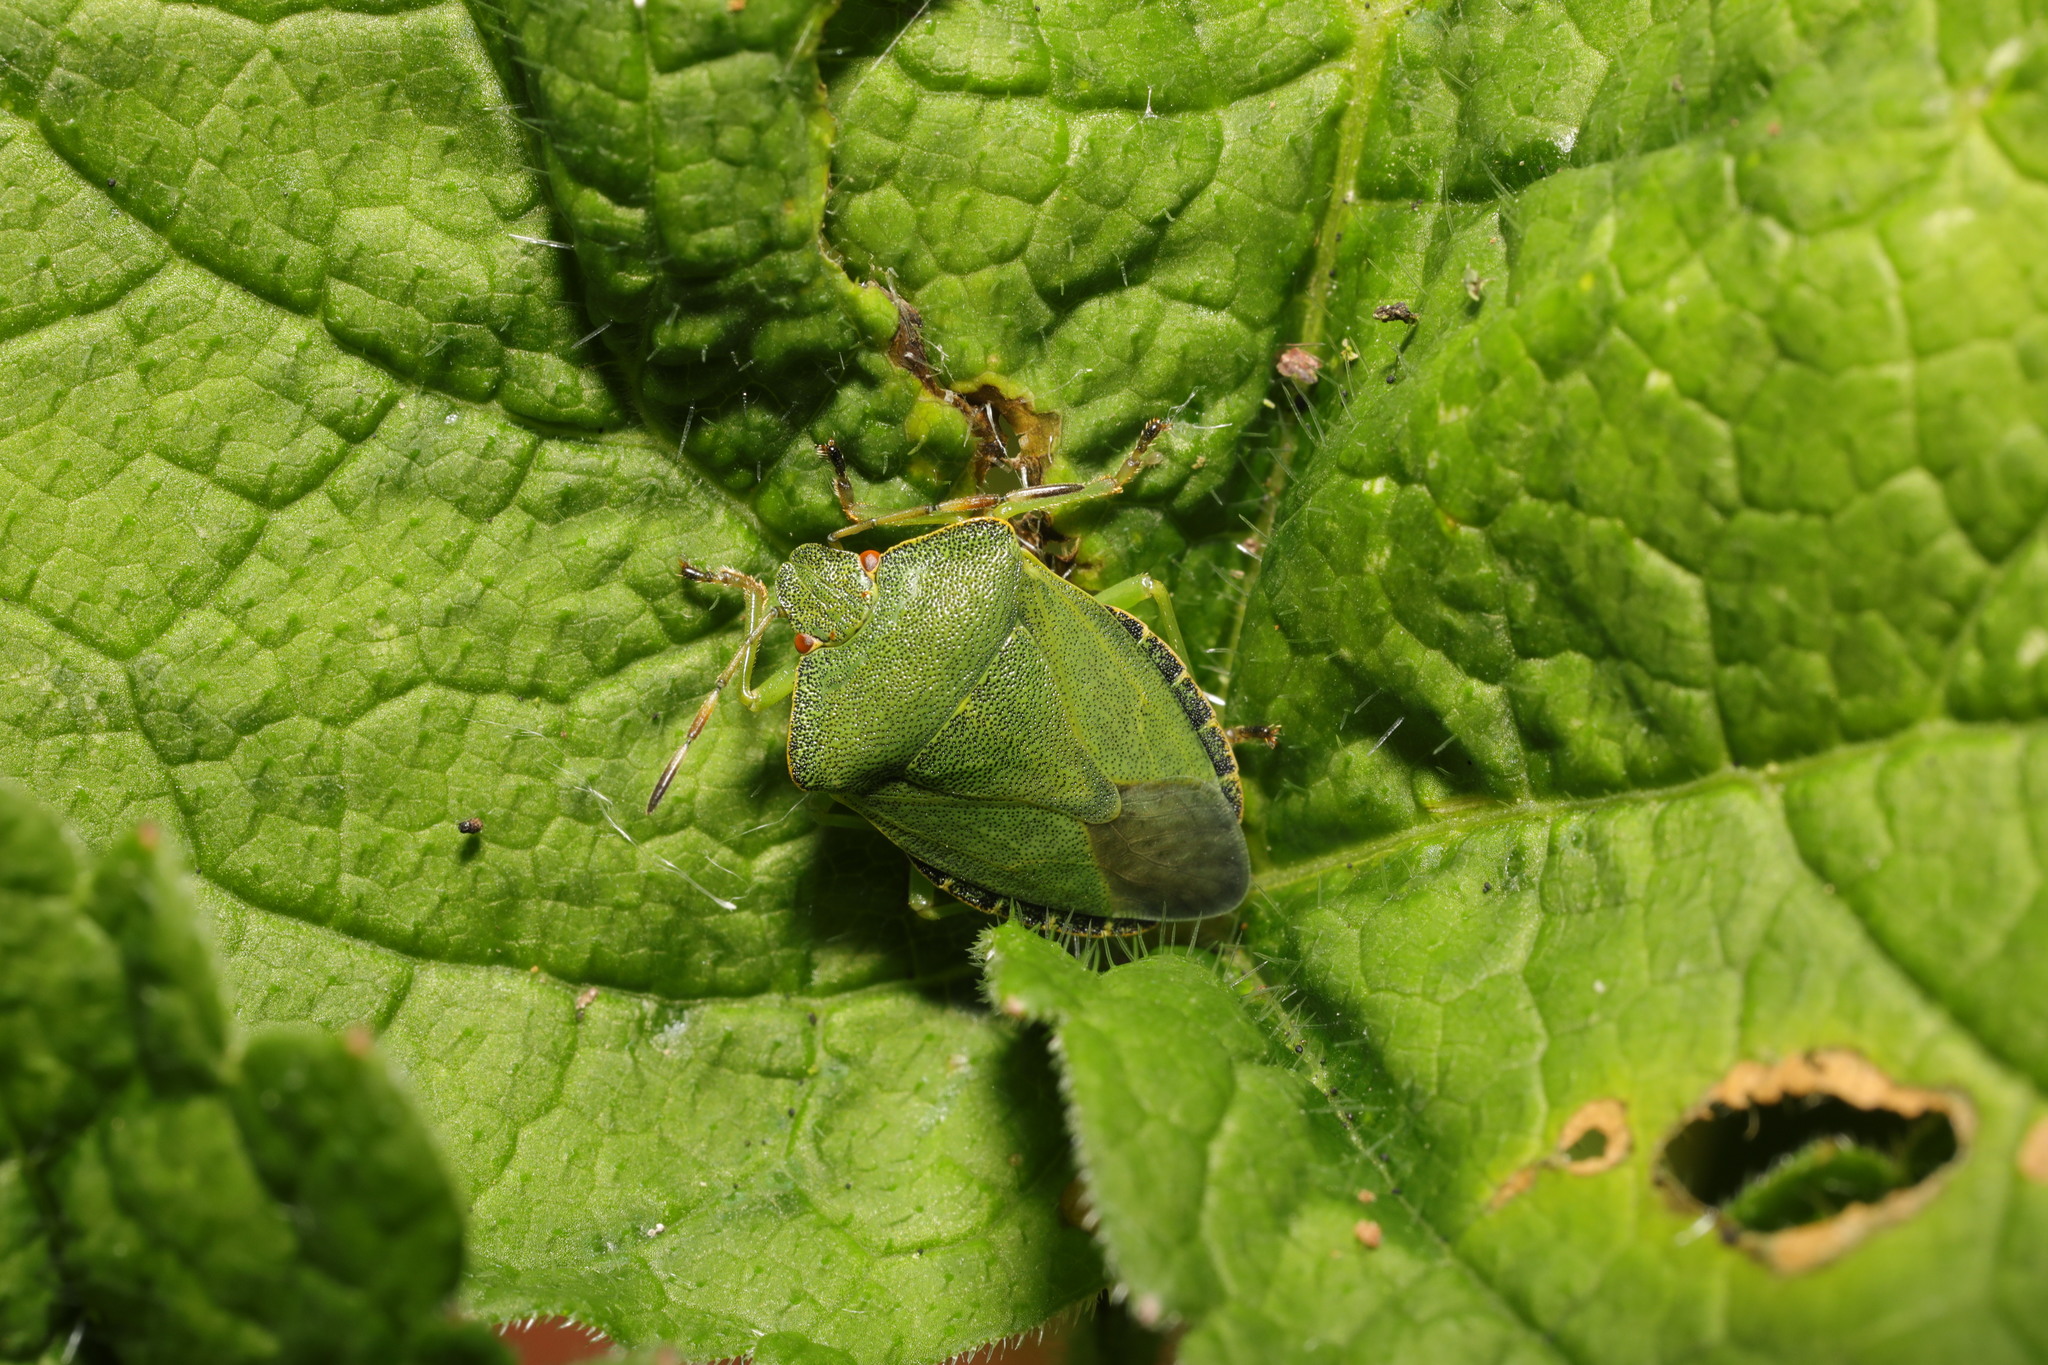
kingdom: Animalia
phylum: Arthropoda
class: Insecta
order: Hemiptera
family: Pentatomidae
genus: Palomena
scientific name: Palomena prasina
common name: Green shieldbug
